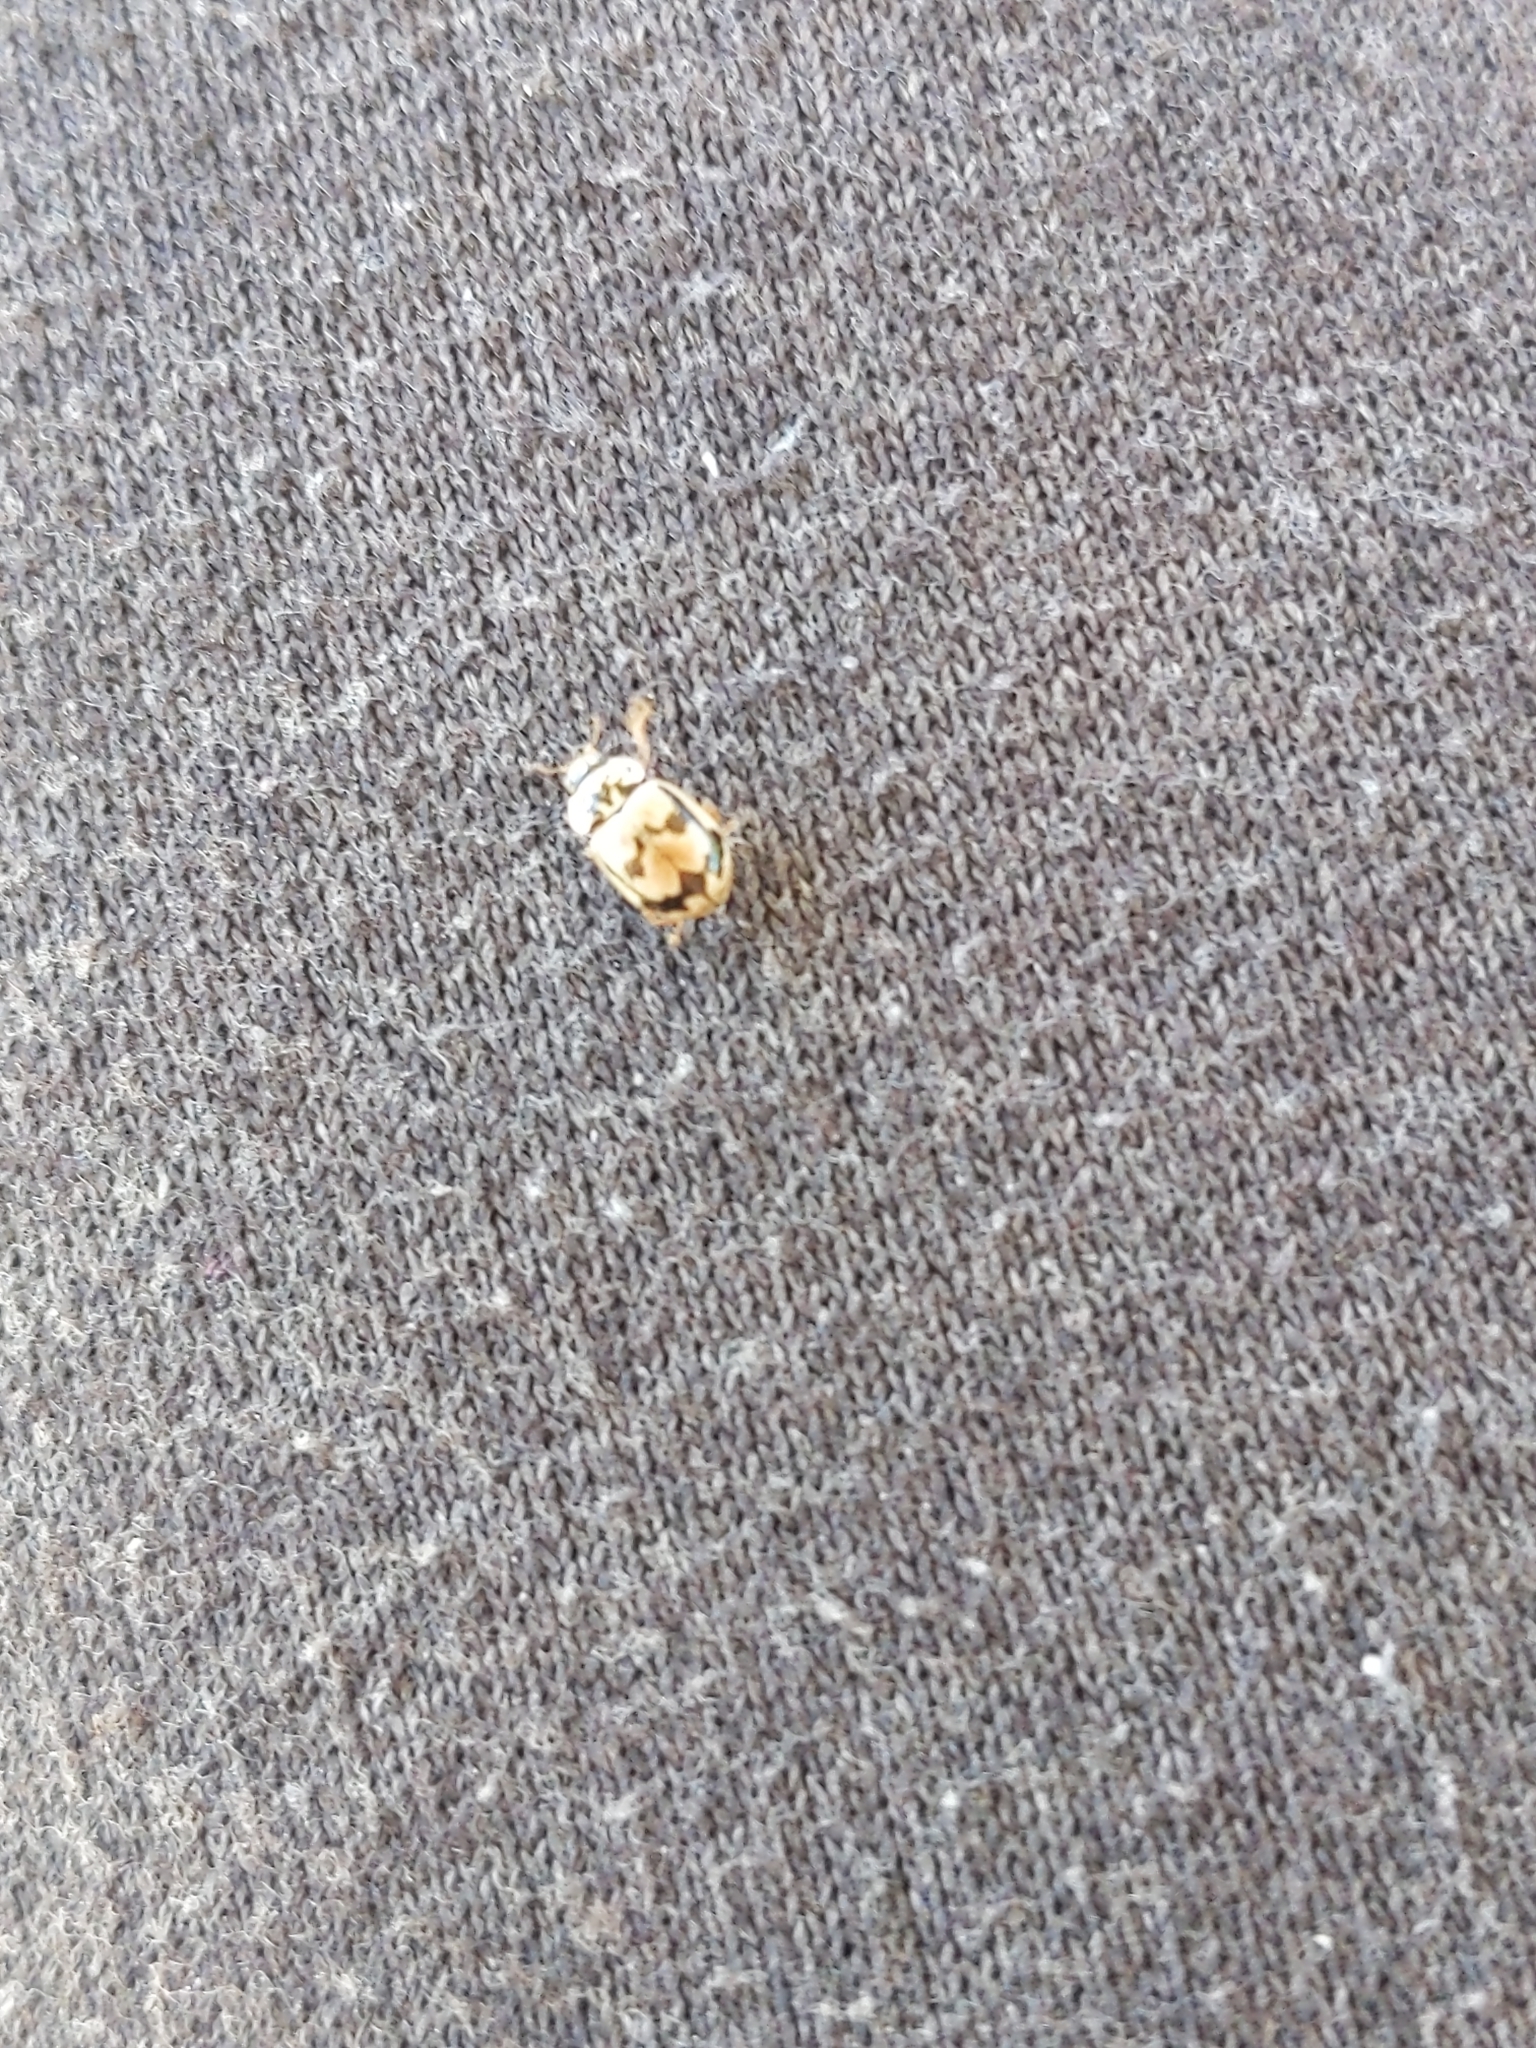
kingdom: Animalia
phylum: Arthropoda
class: Insecta
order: Coleoptera
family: Coccinellidae
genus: Mulsantina
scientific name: Mulsantina picta
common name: Painted ladybird
